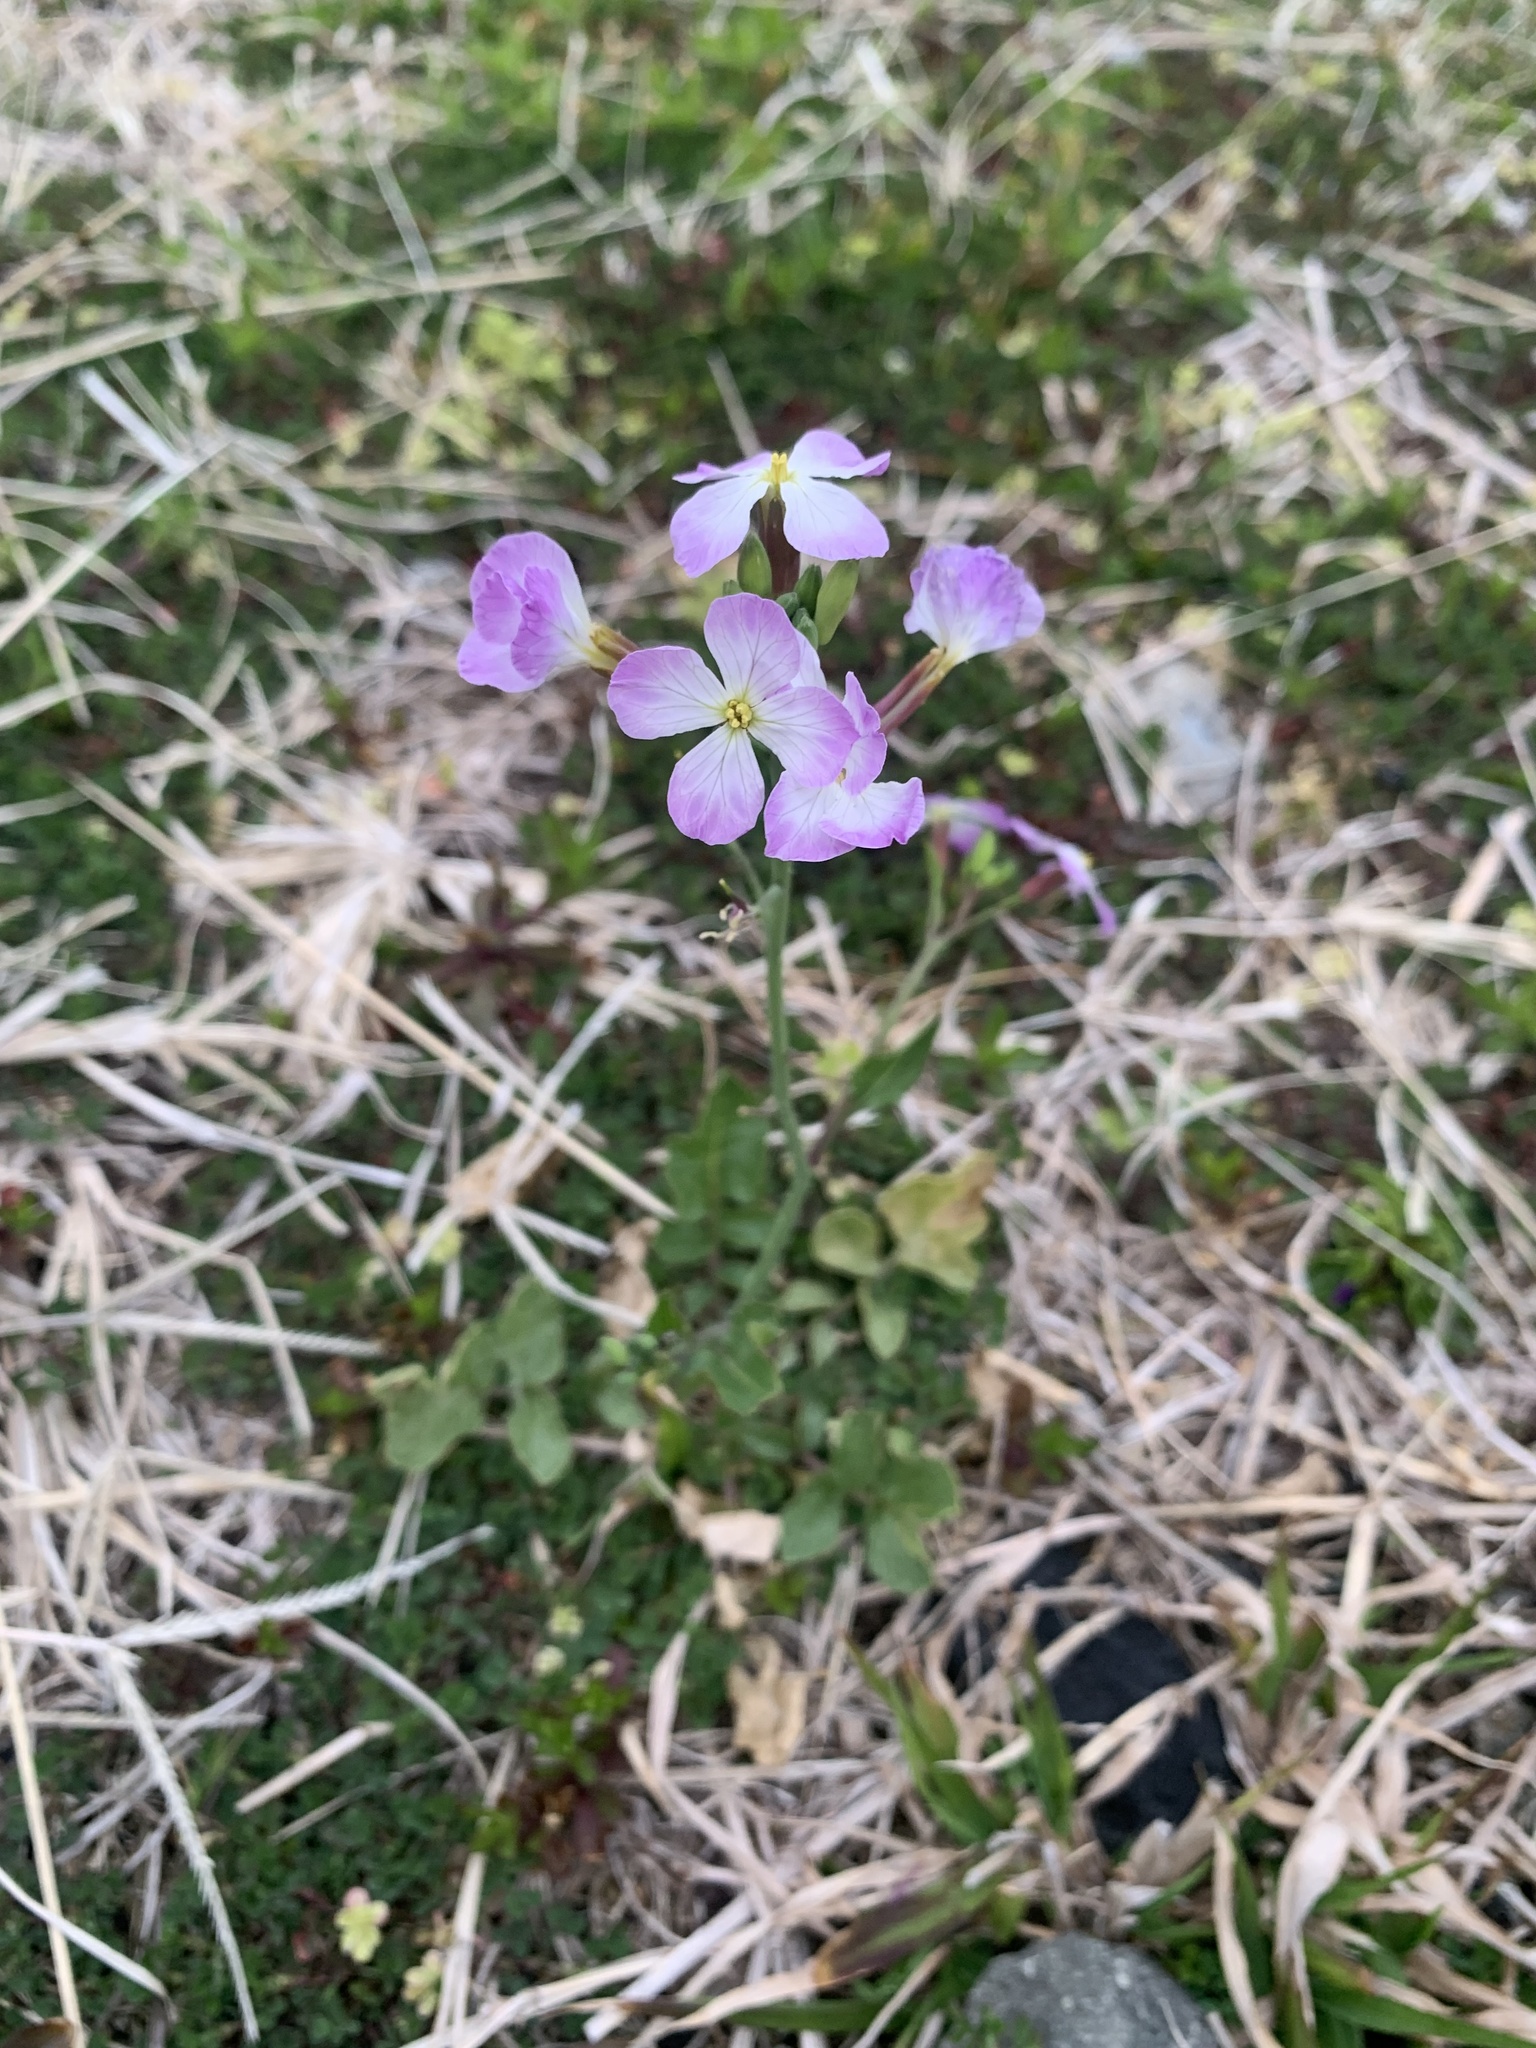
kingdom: Plantae
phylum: Tracheophyta
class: Magnoliopsida
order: Brassicales
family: Brassicaceae
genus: Raphanus
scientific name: Raphanus sativus
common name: Cultivated radish
